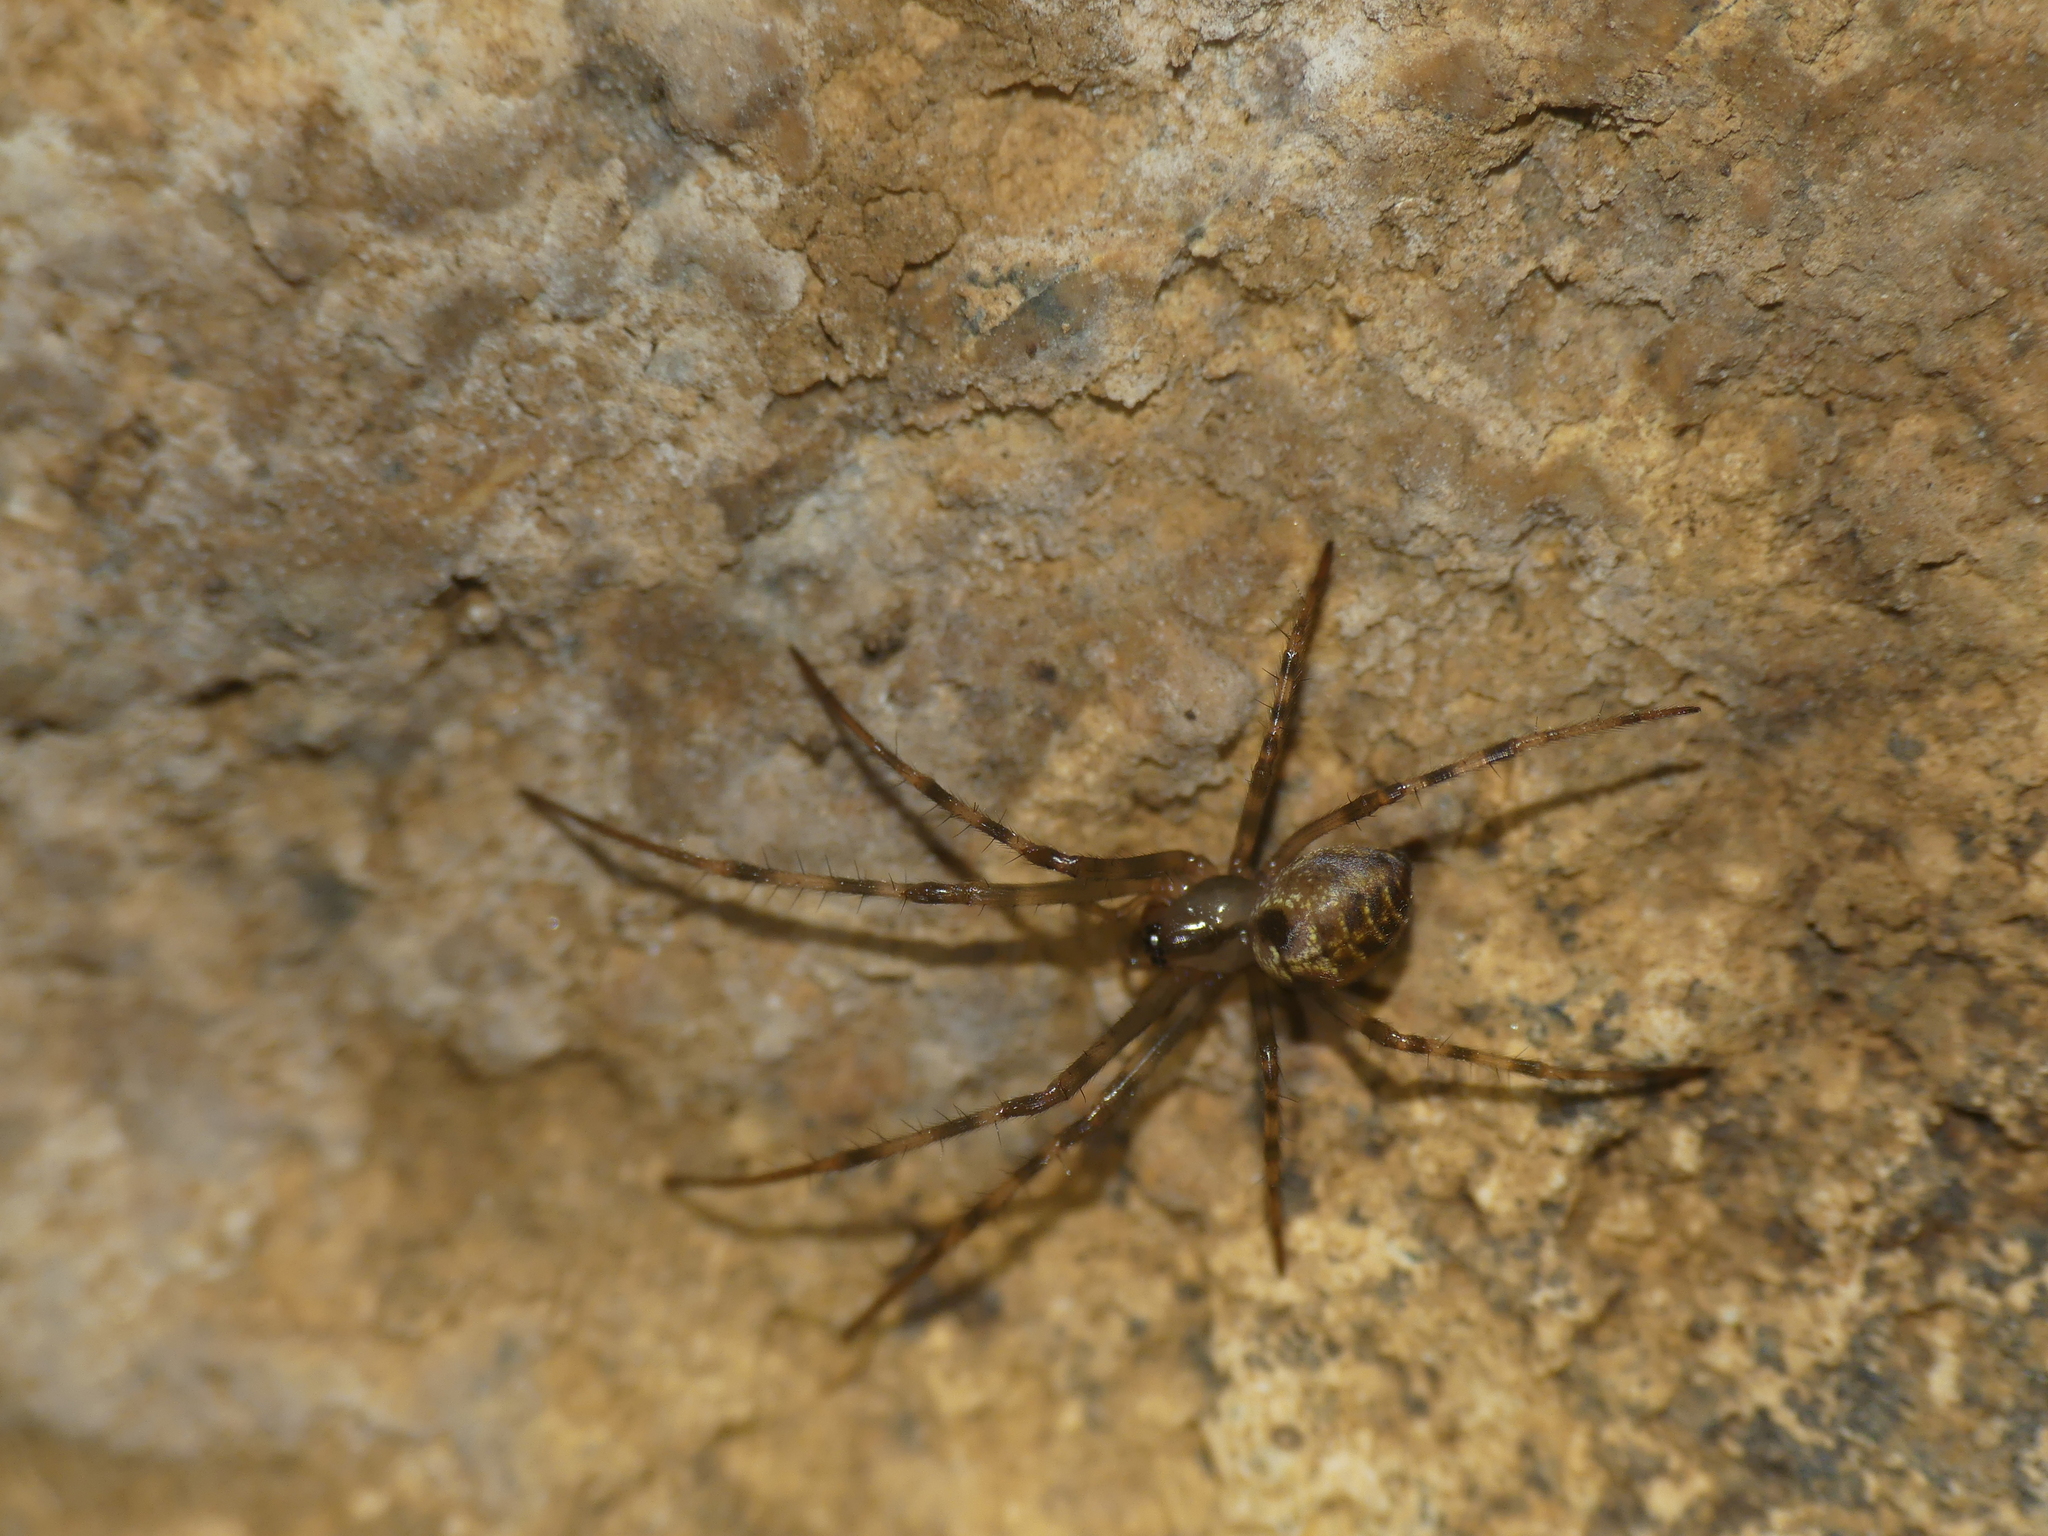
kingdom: Animalia
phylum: Arthropoda
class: Arachnida
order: Araneae
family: Tetragnathidae
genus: Meta
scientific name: Meta menardi
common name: Cave spider
